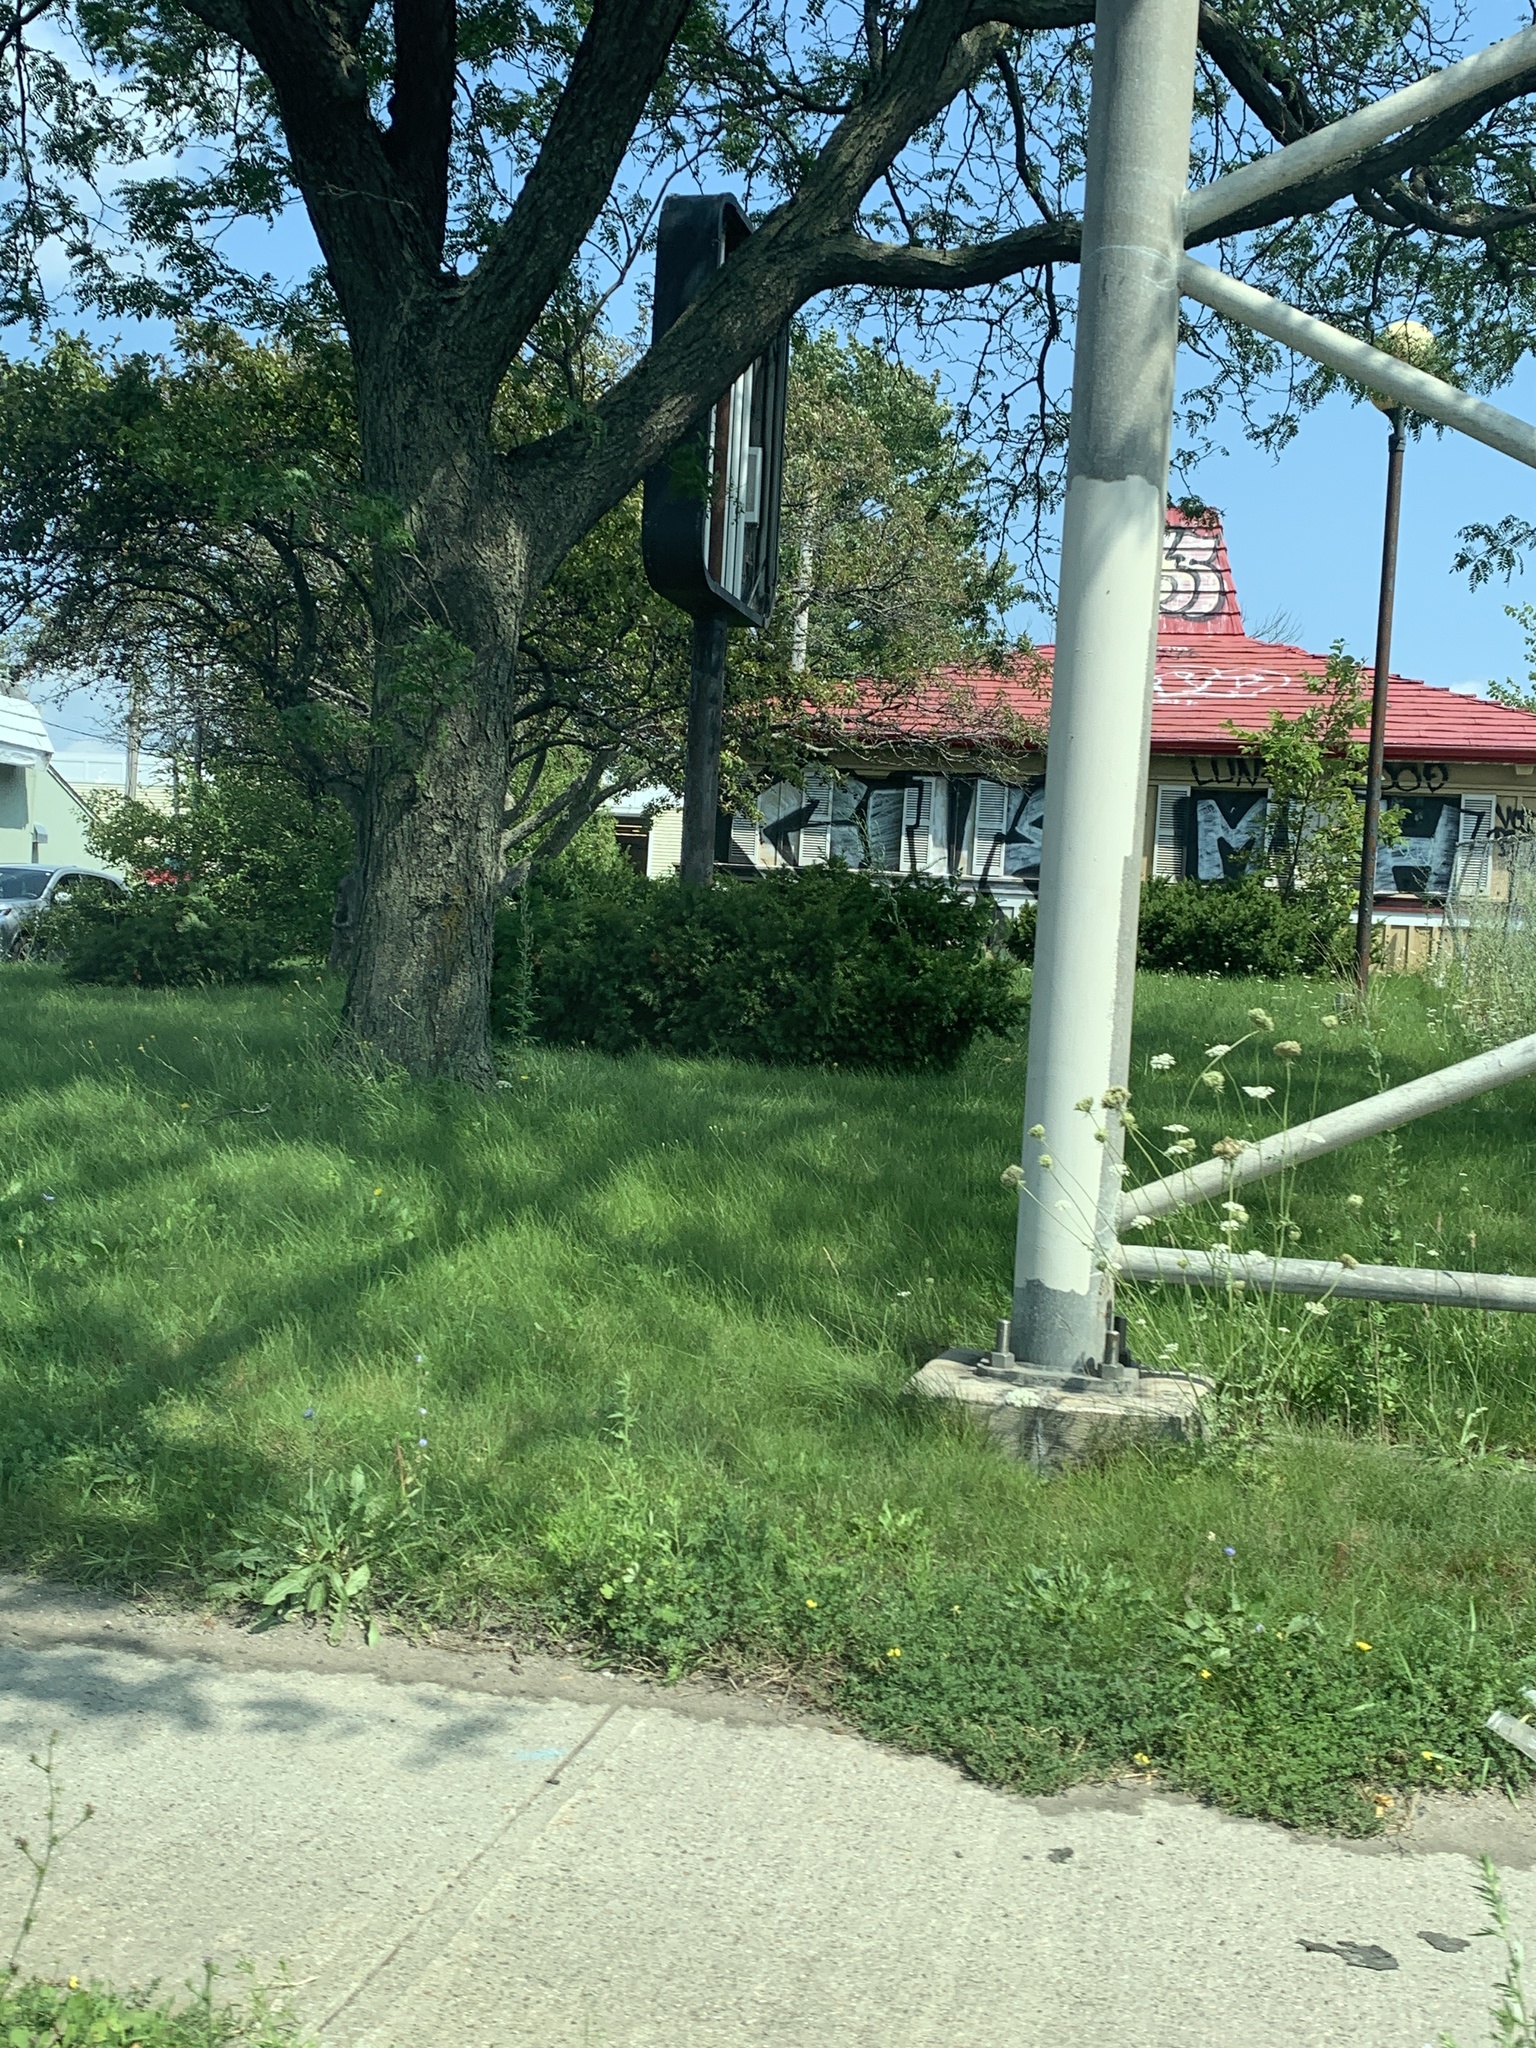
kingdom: Plantae
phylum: Tracheophyta
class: Magnoliopsida
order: Apiales
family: Apiaceae
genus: Daucus
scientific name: Daucus carota
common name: Wild carrot
